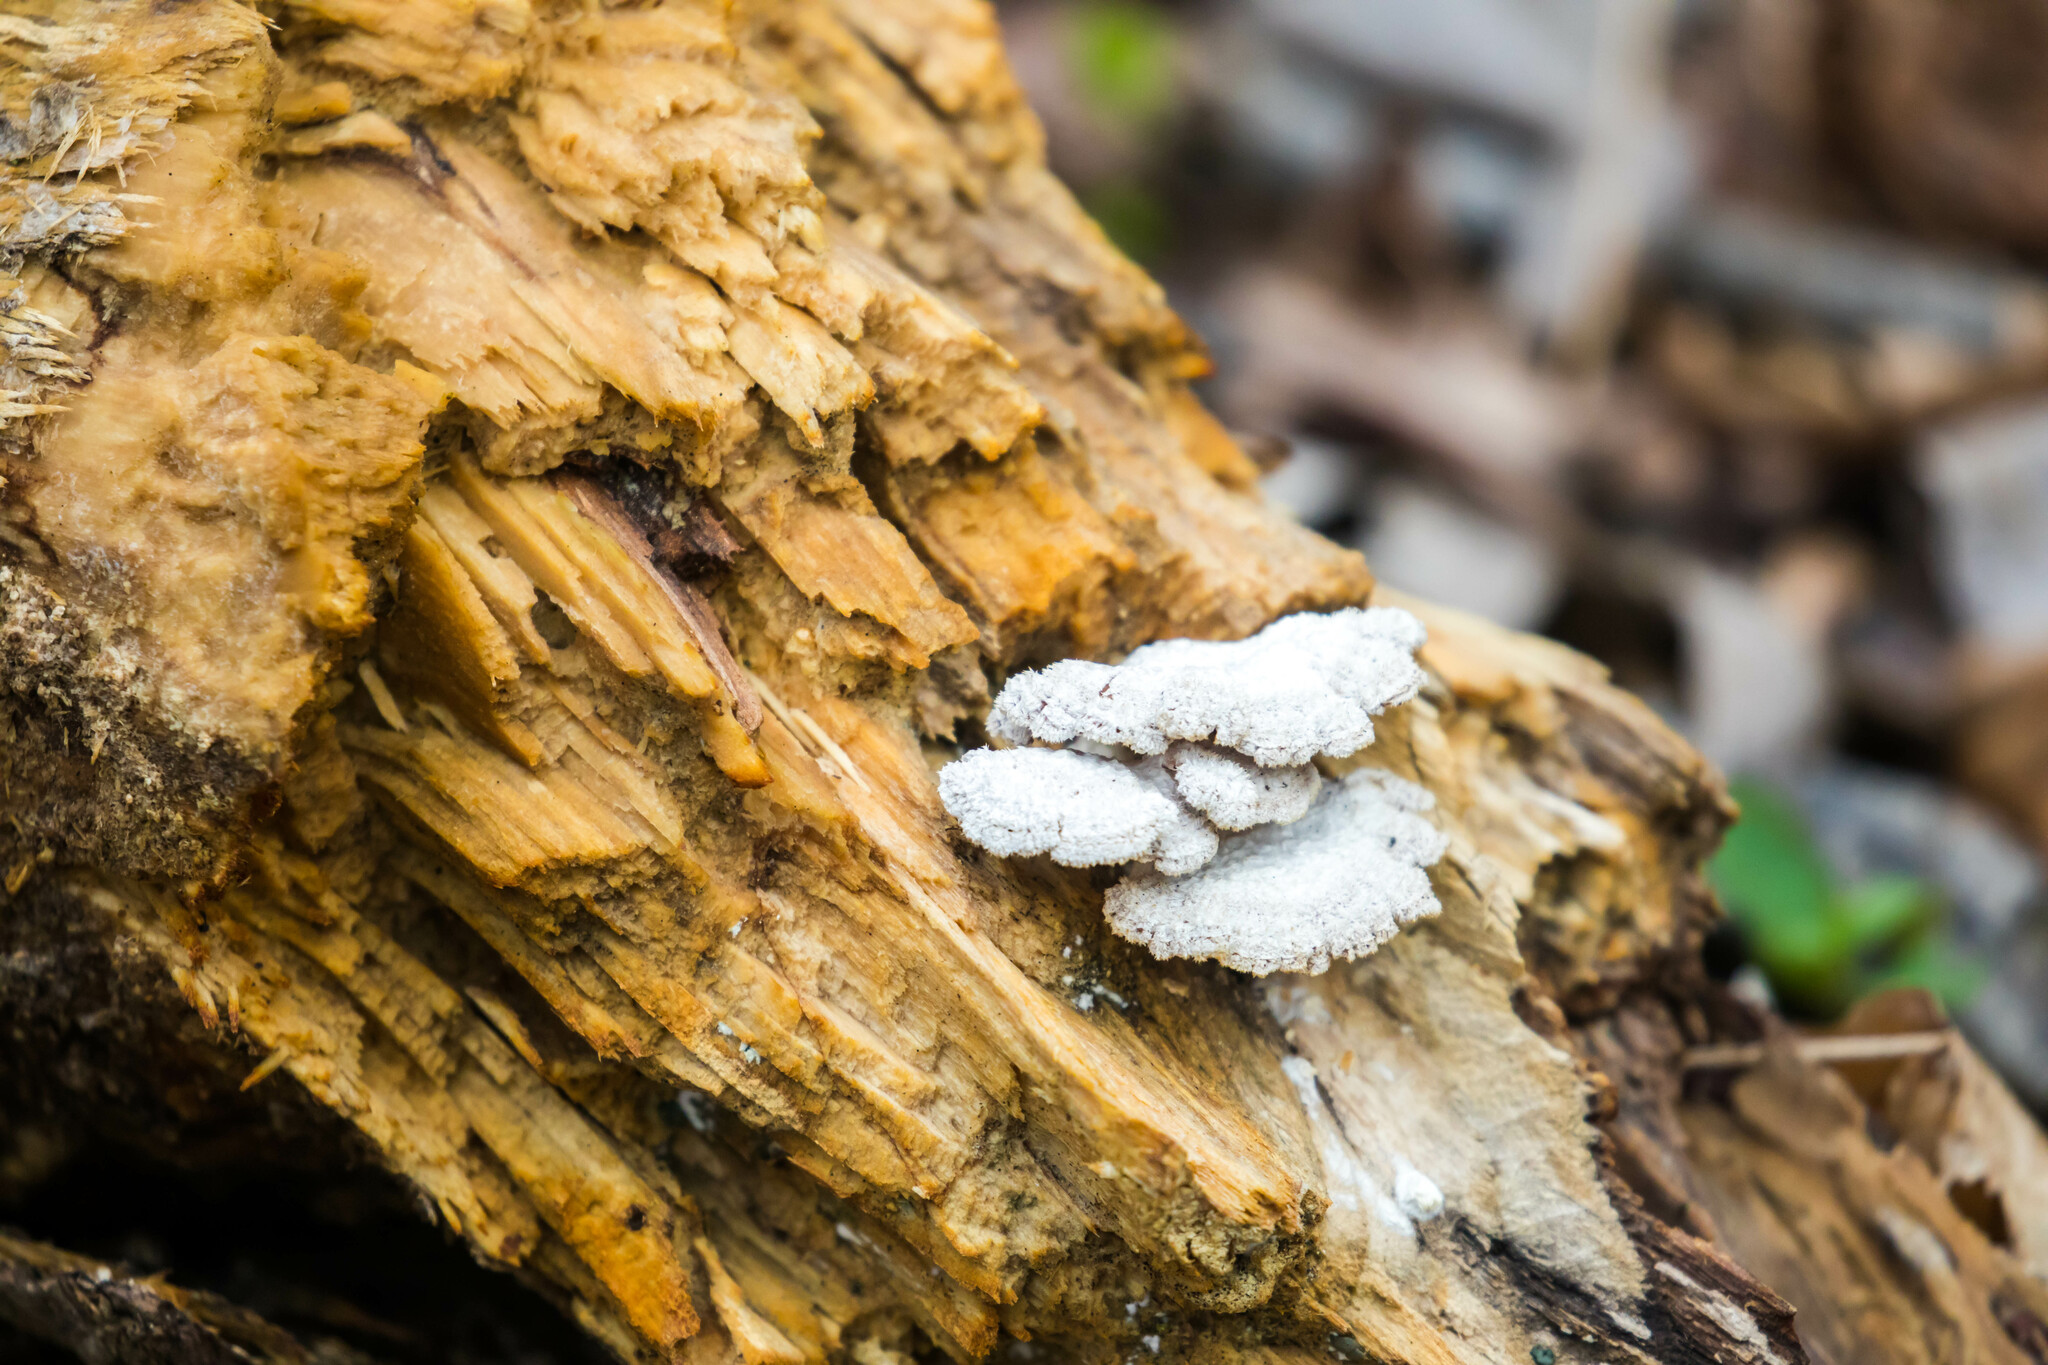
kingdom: Fungi
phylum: Basidiomycota
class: Agaricomycetes
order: Agaricales
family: Schizophyllaceae
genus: Schizophyllum
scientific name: Schizophyllum commune
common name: Common porecrust
